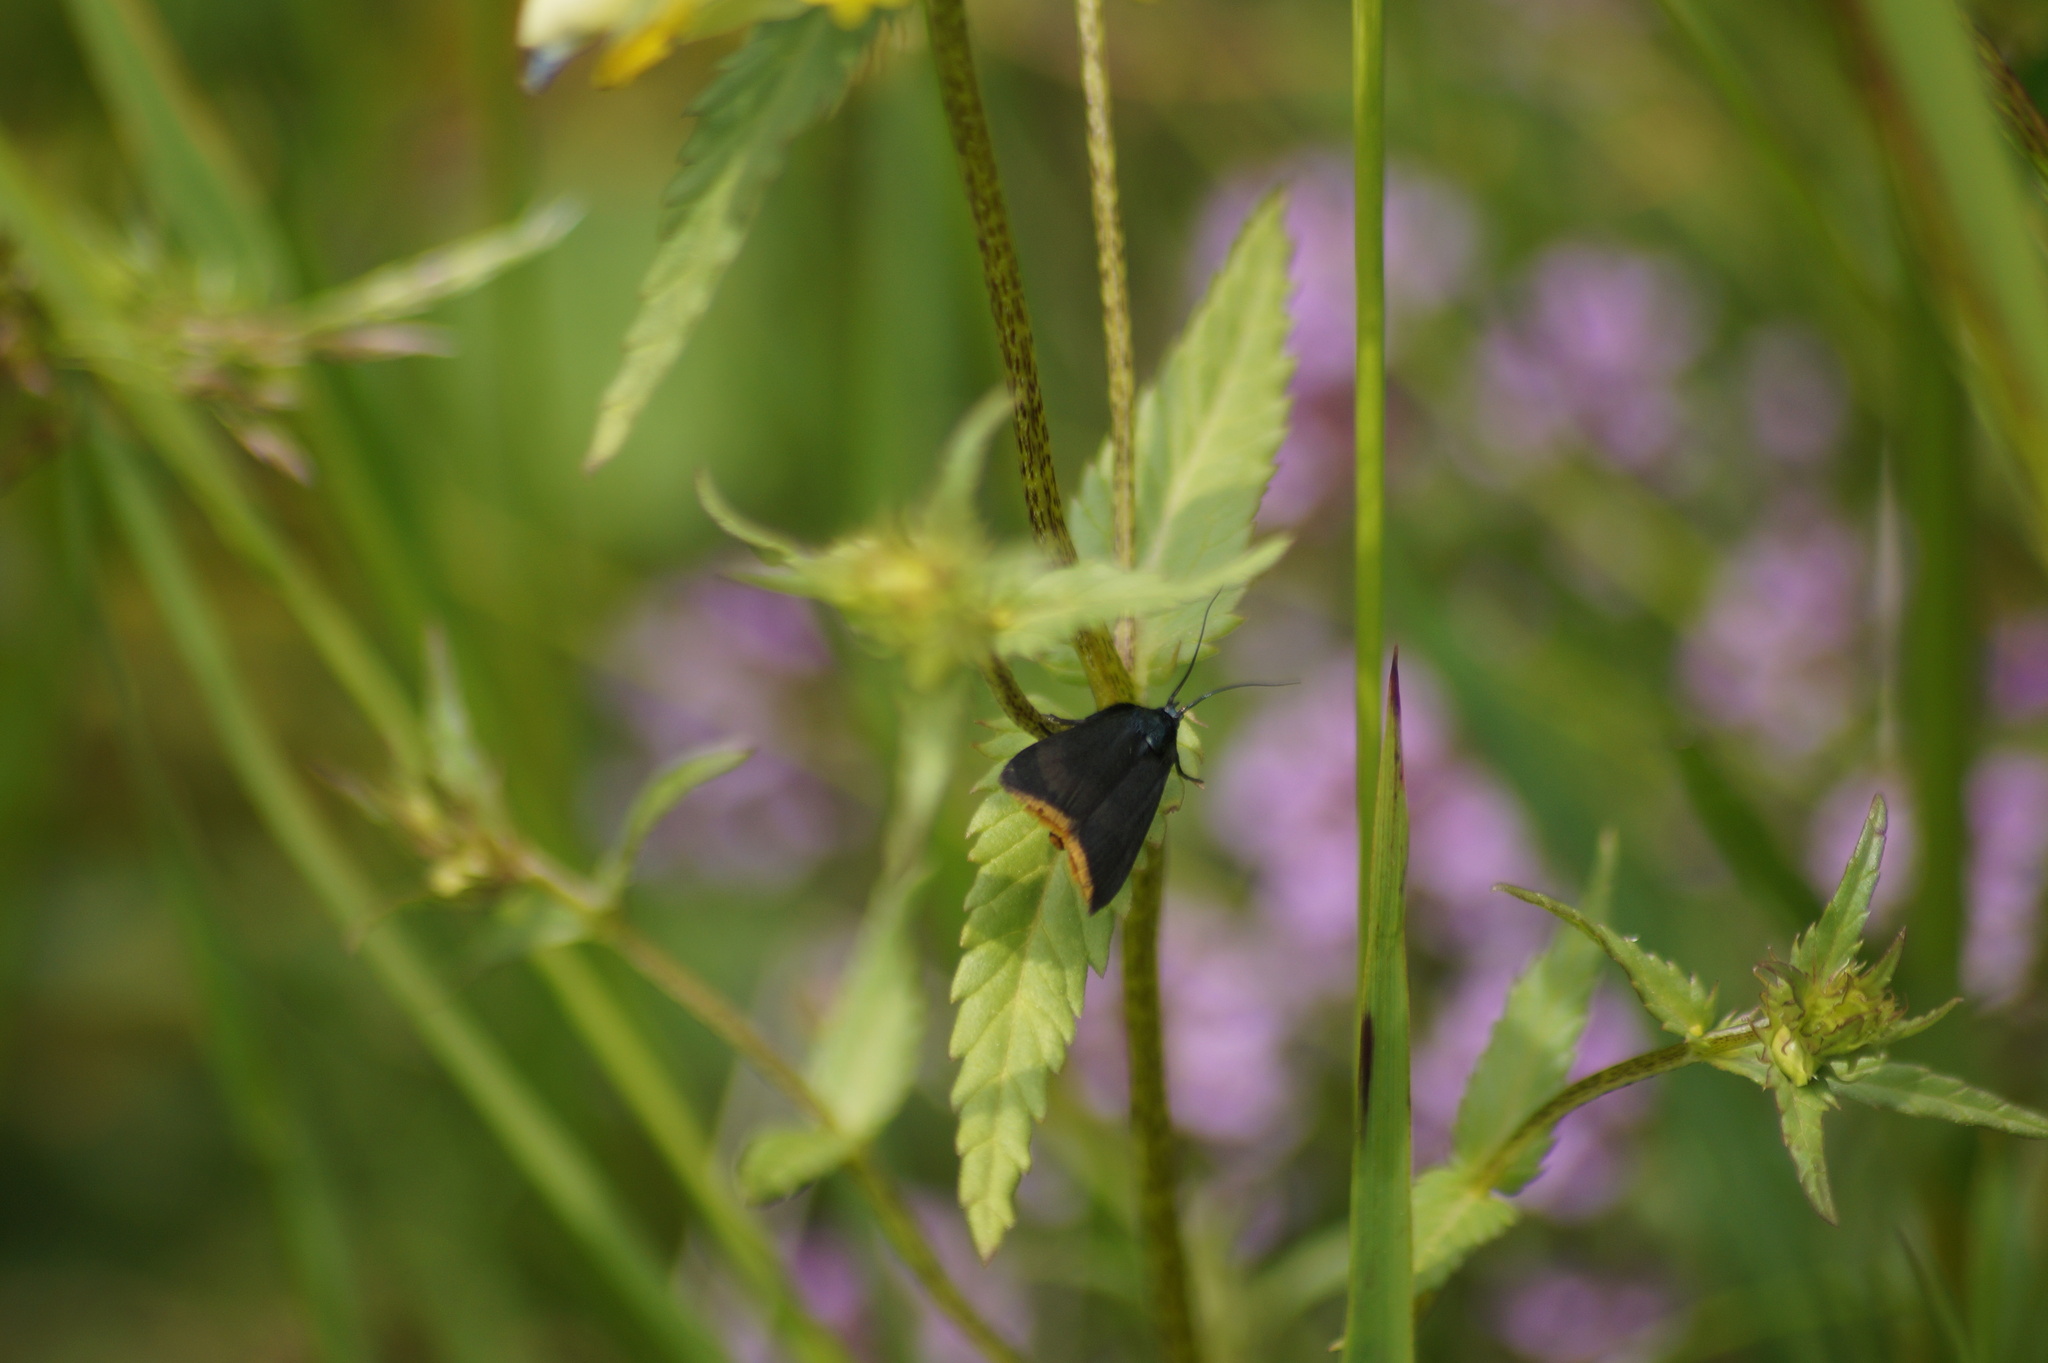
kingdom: Animalia
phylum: Arthropoda
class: Insecta
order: Lepidoptera
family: Pyralidae
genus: Catastia
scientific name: Catastia marginea
